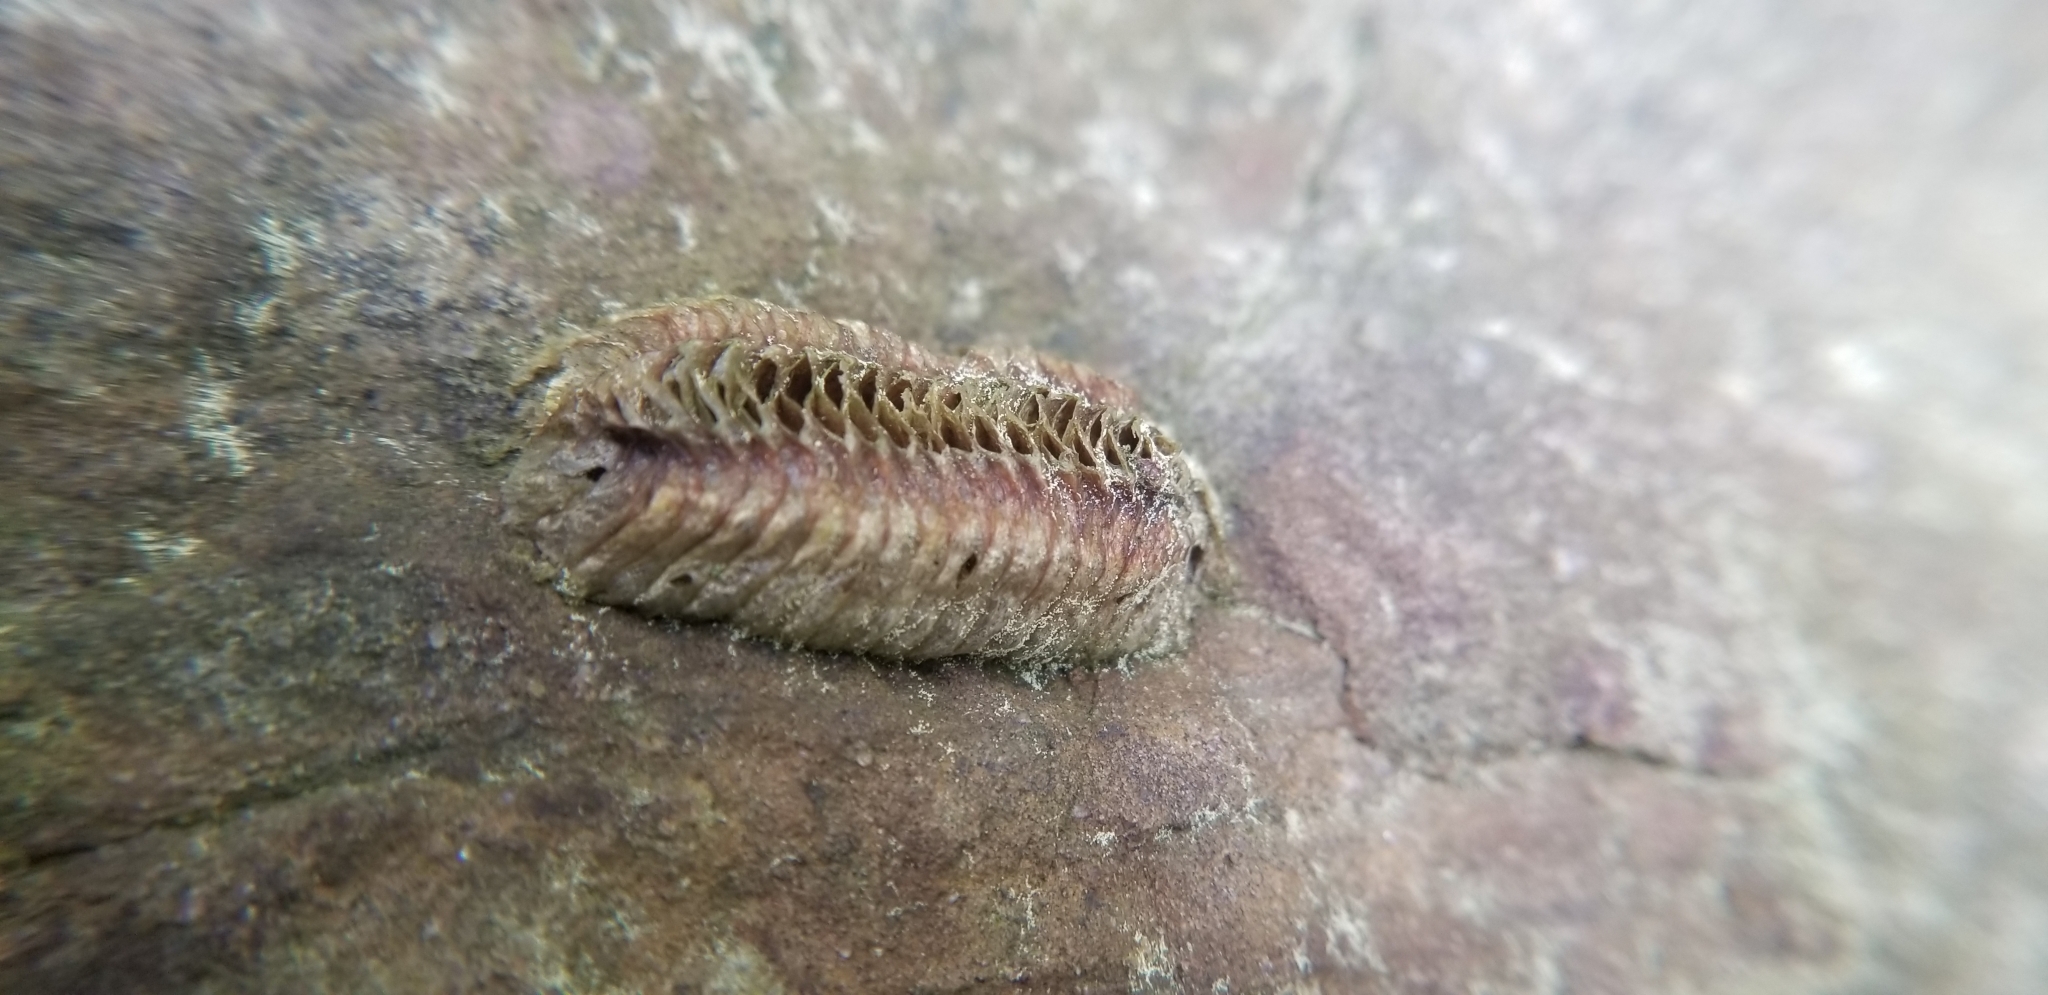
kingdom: Animalia
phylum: Arthropoda
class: Insecta
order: Mantodea
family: Mantidae
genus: Stagmomantis
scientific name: Stagmomantis carolina
